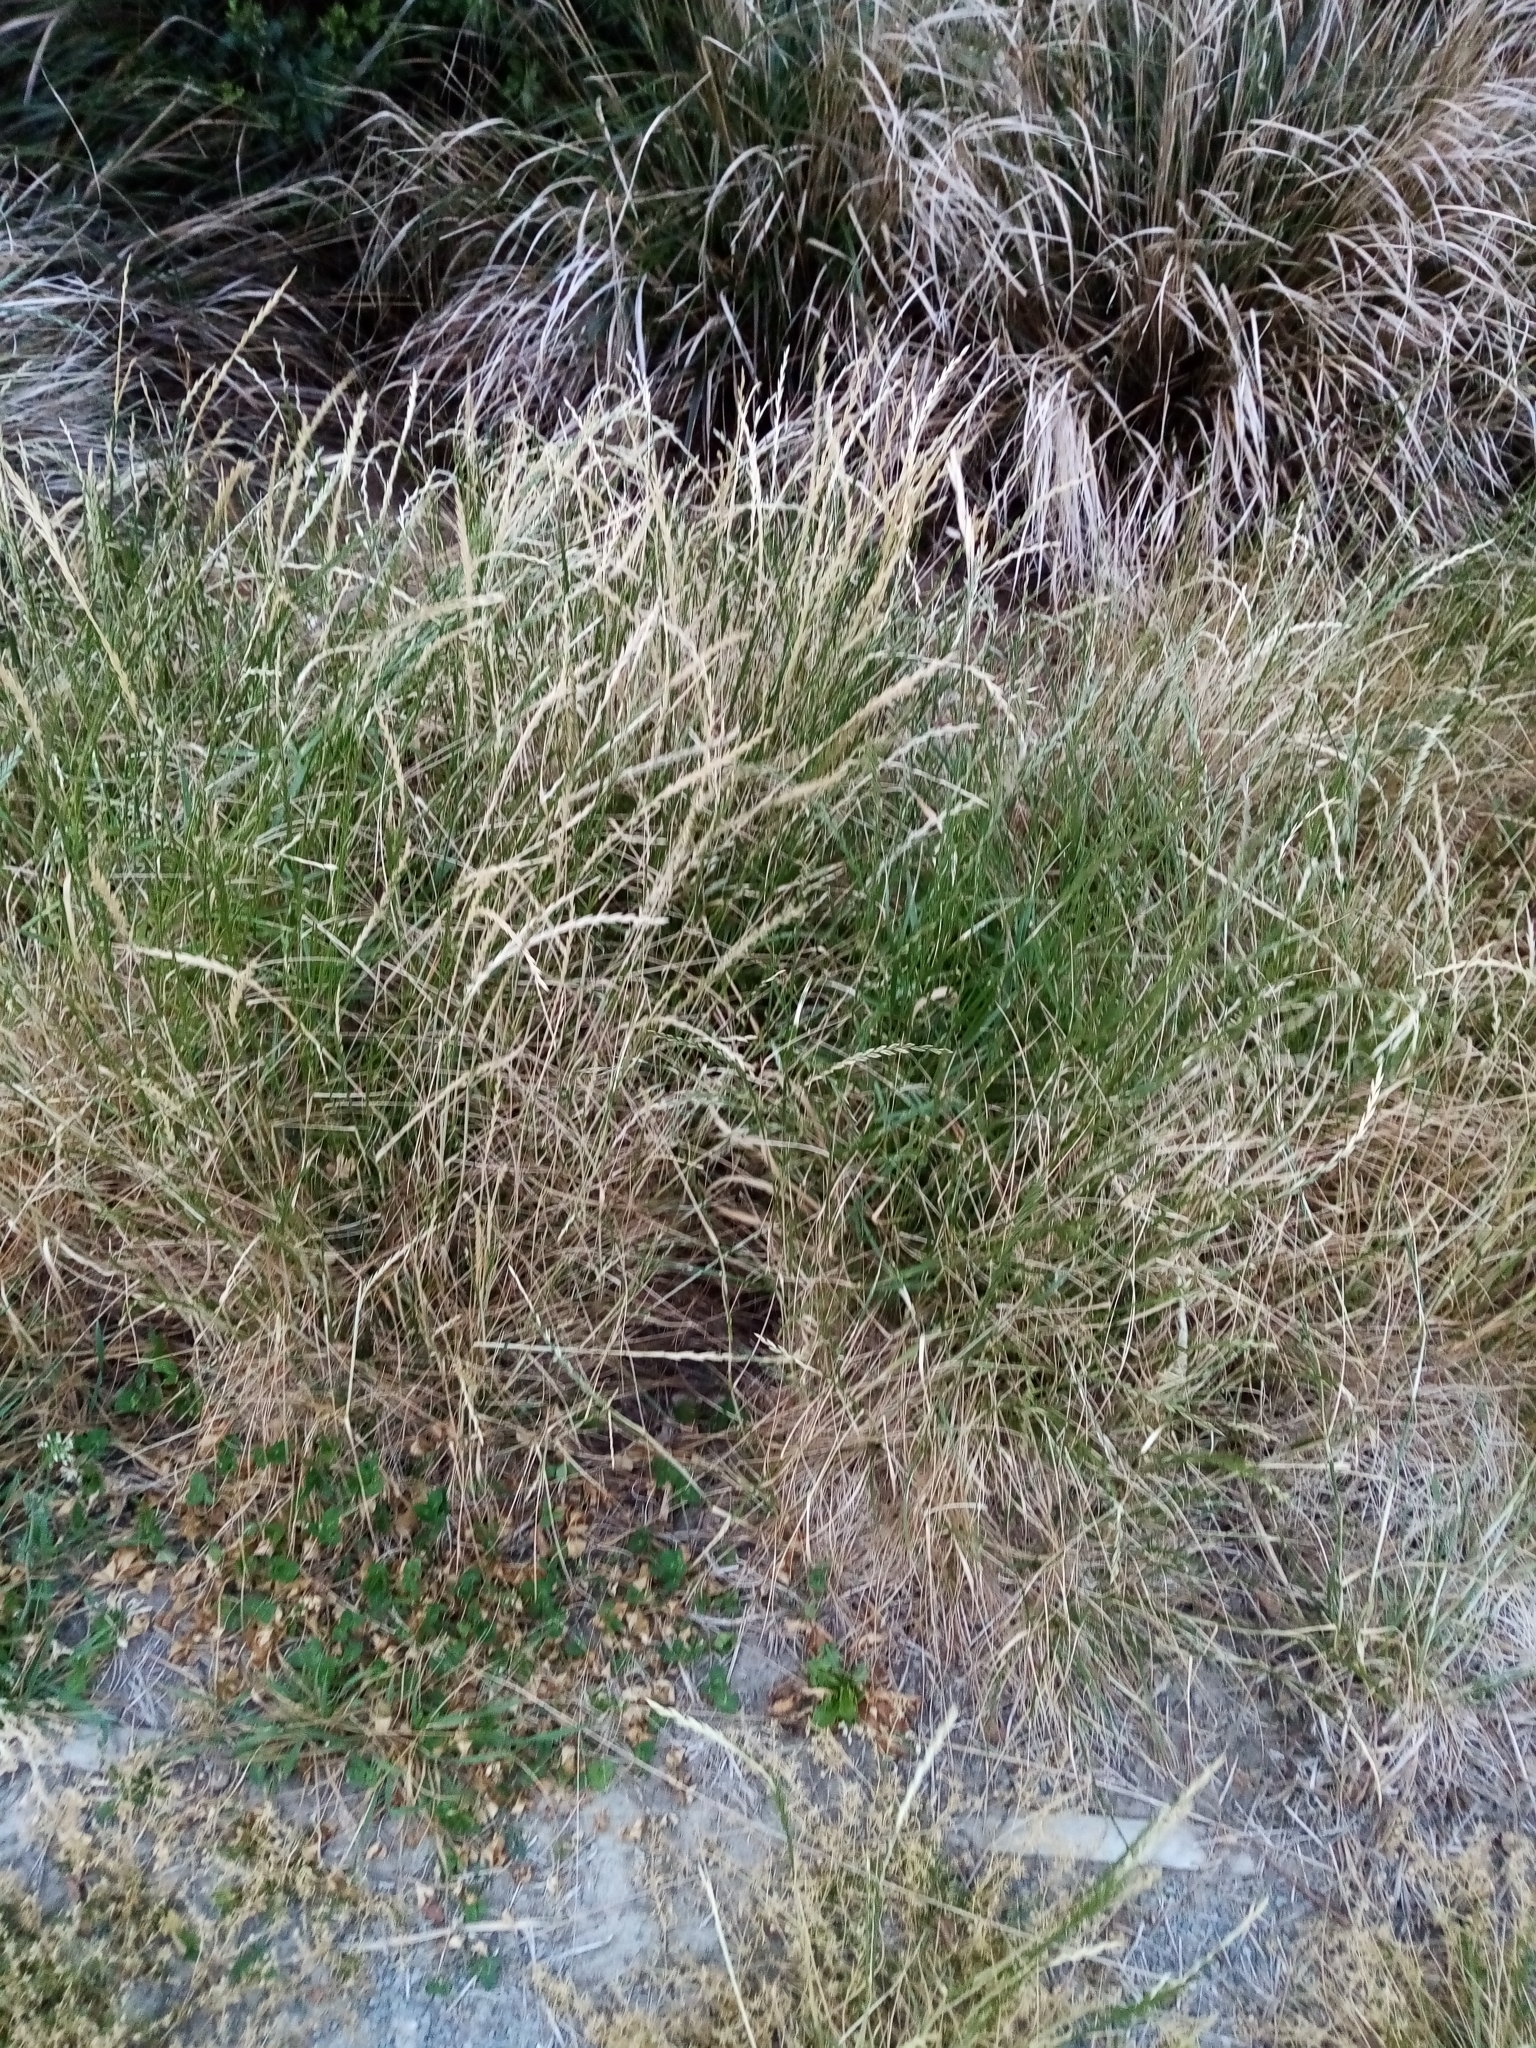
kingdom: Plantae
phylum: Tracheophyta
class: Liliopsida
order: Poales
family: Poaceae
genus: Lolium
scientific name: Lolium perenne
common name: Perennial ryegrass
